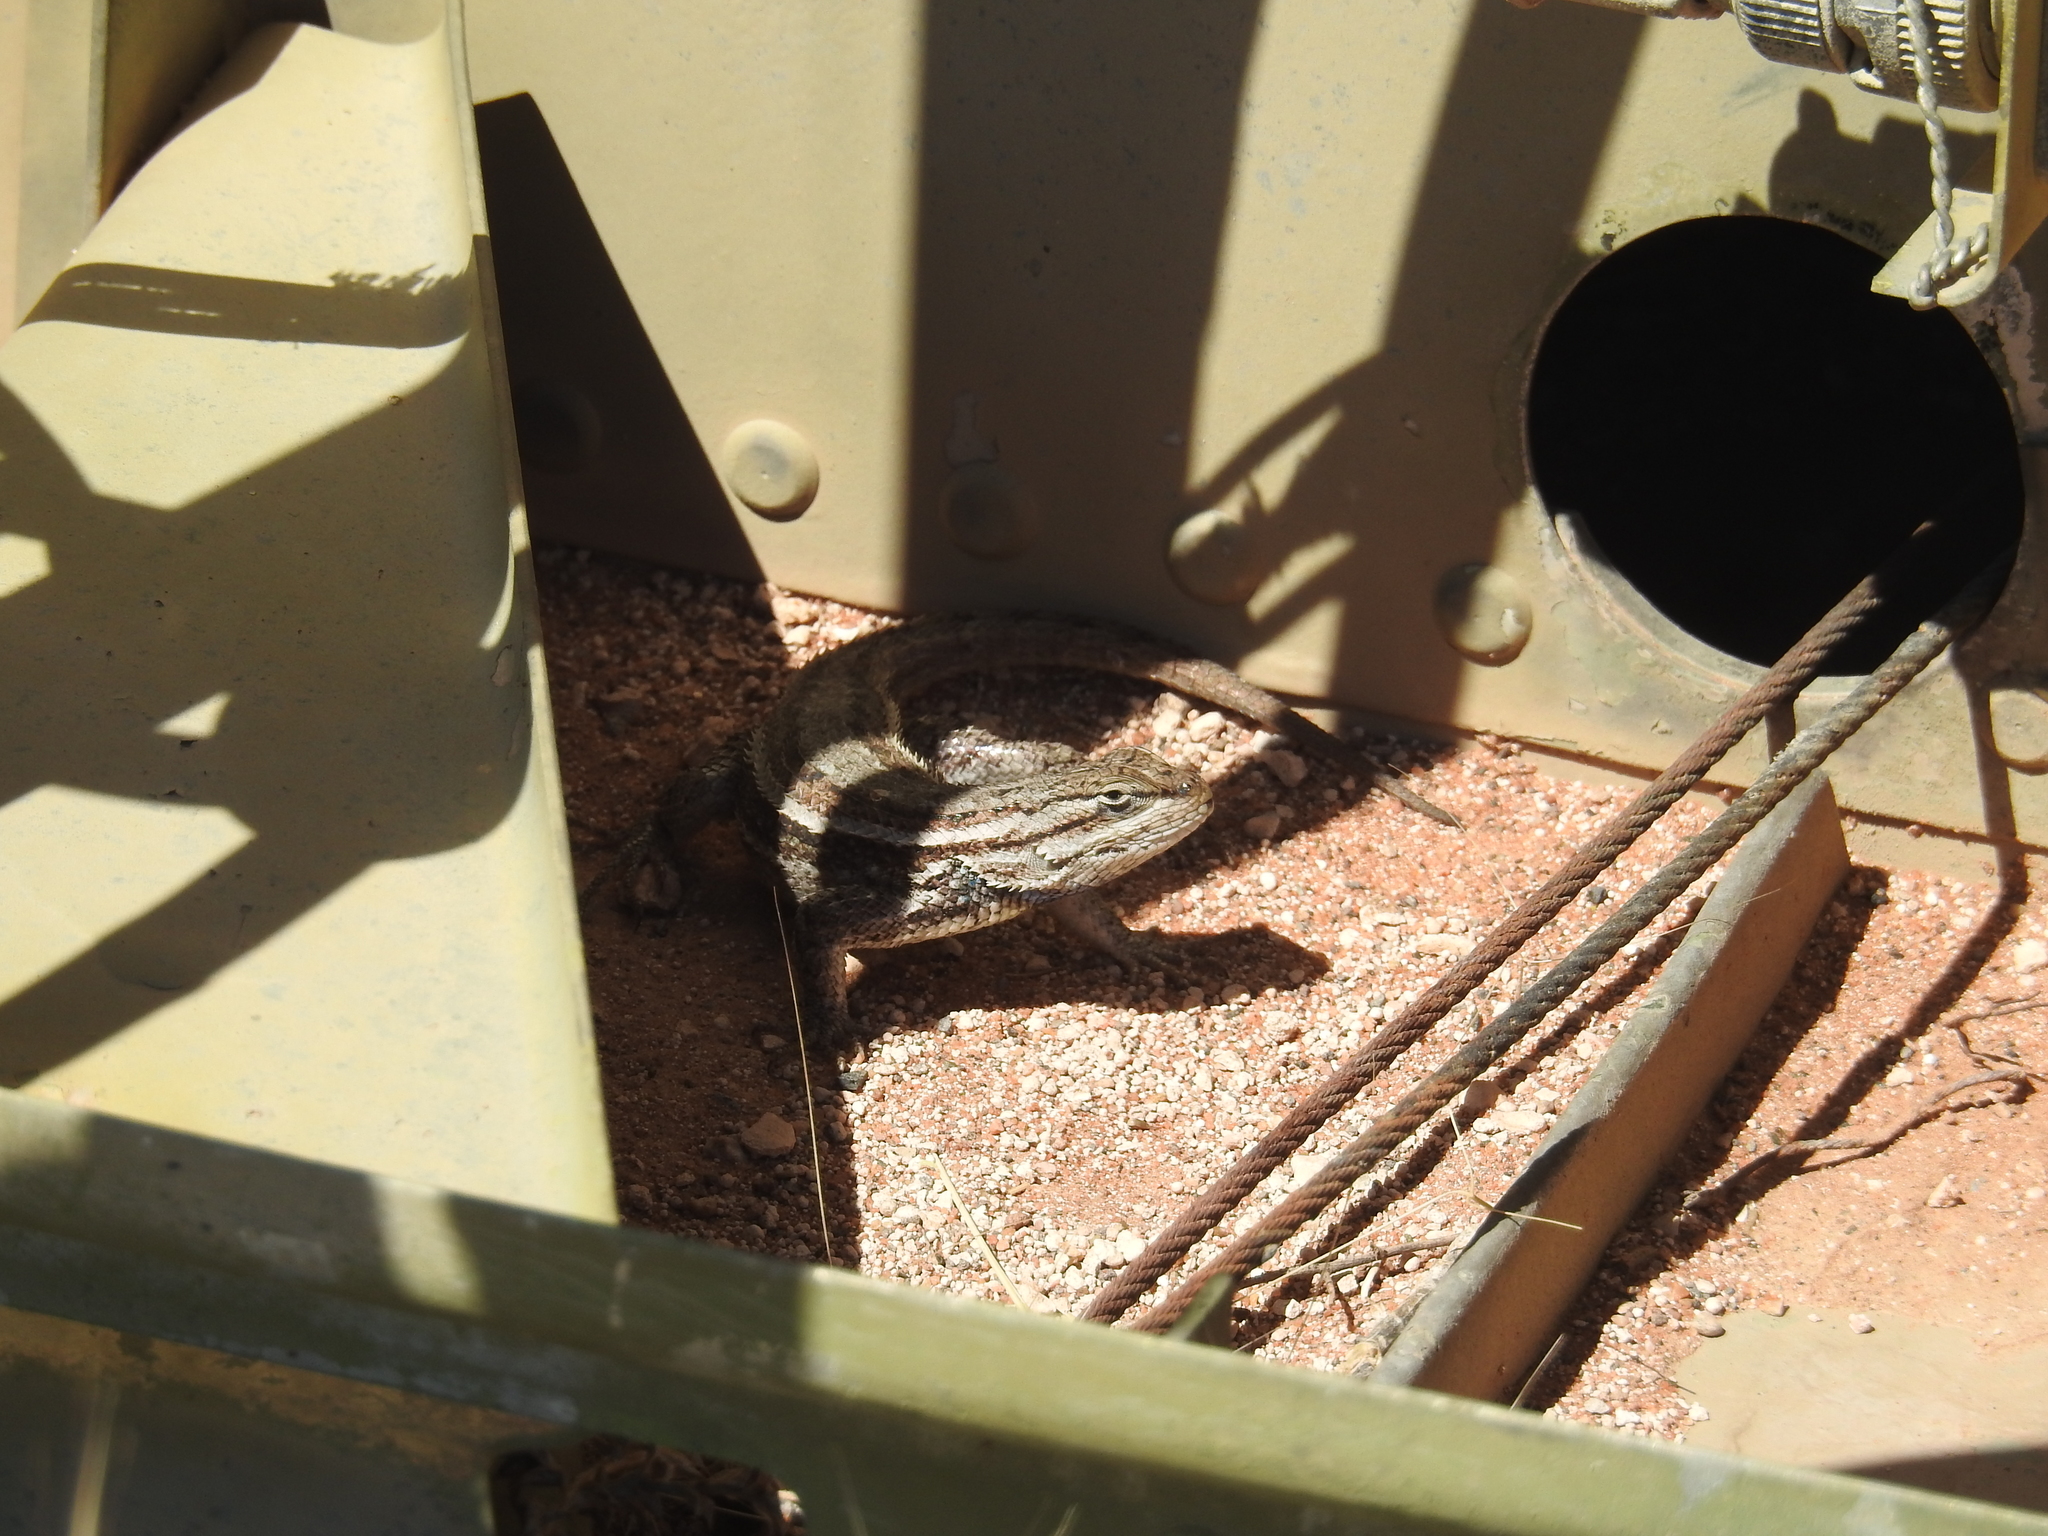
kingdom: Animalia
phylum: Chordata
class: Squamata
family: Phrynosomatidae
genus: Sceloporus
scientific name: Sceloporus tristichus
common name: Plateau fence lizard
